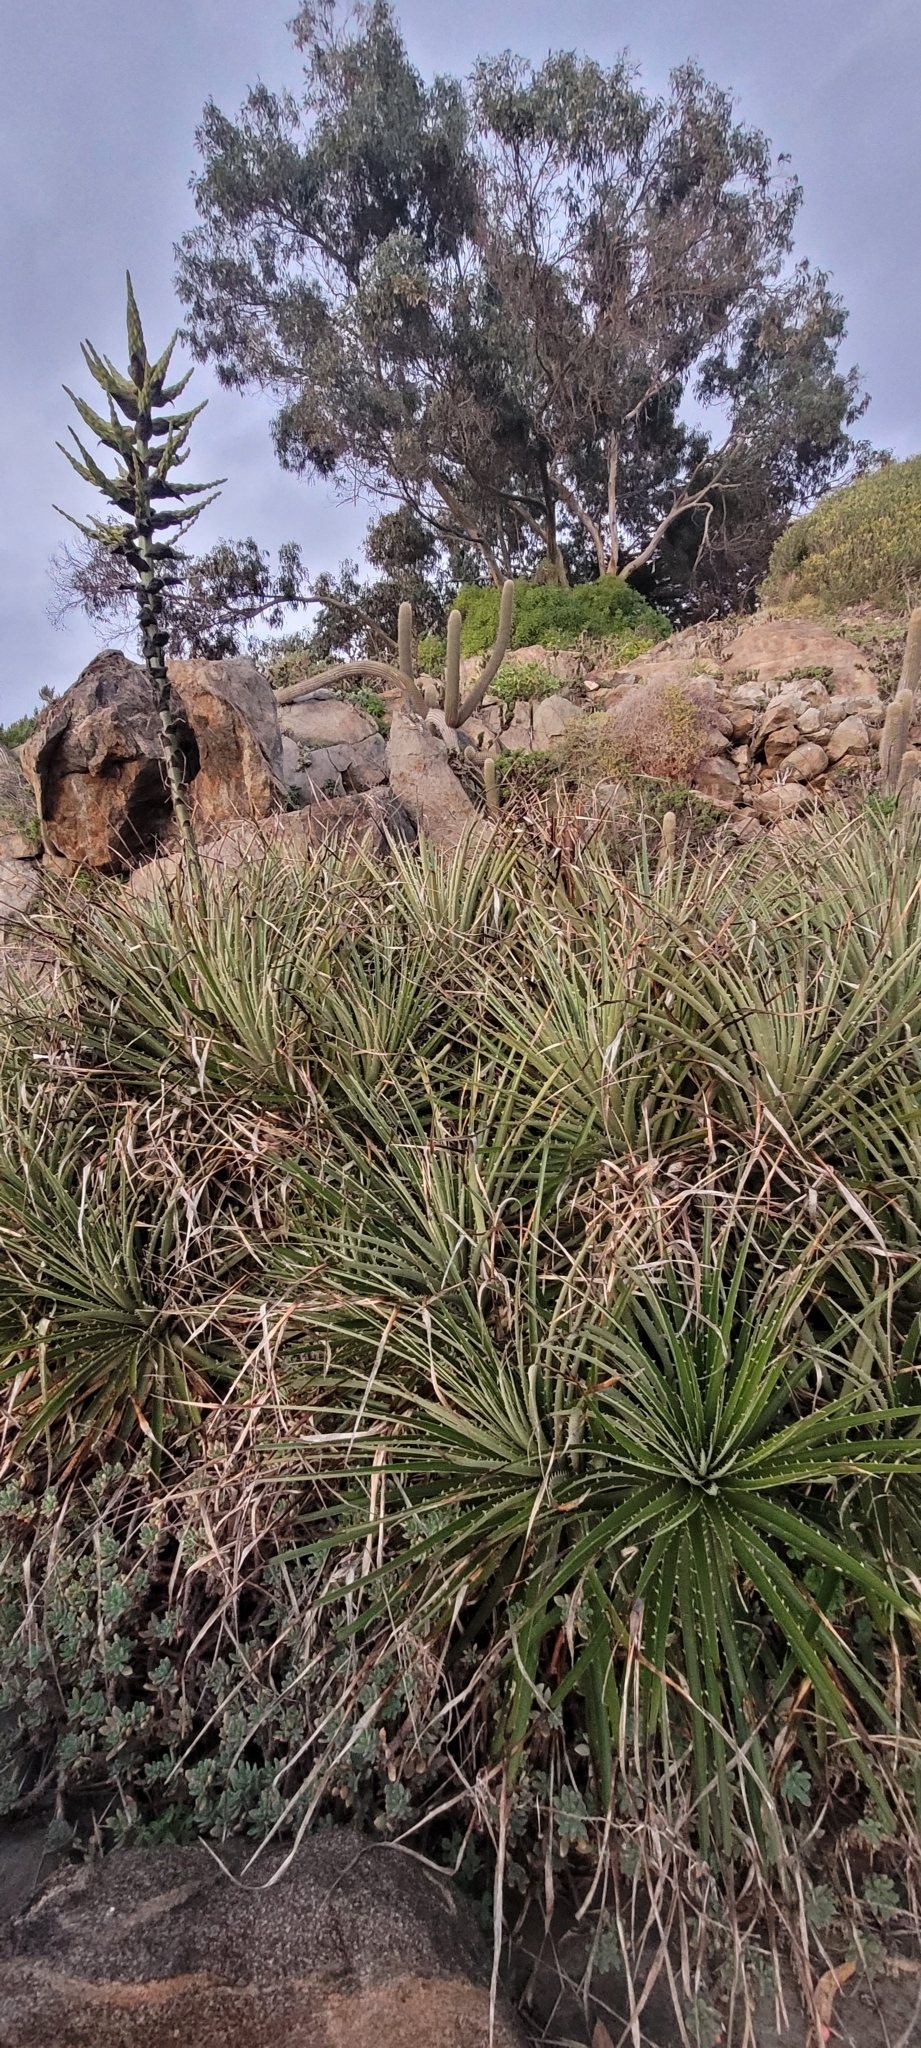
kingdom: Plantae
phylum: Tracheophyta
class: Liliopsida
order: Poales
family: Bromeliaceae
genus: Puya
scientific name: Puya venusta
